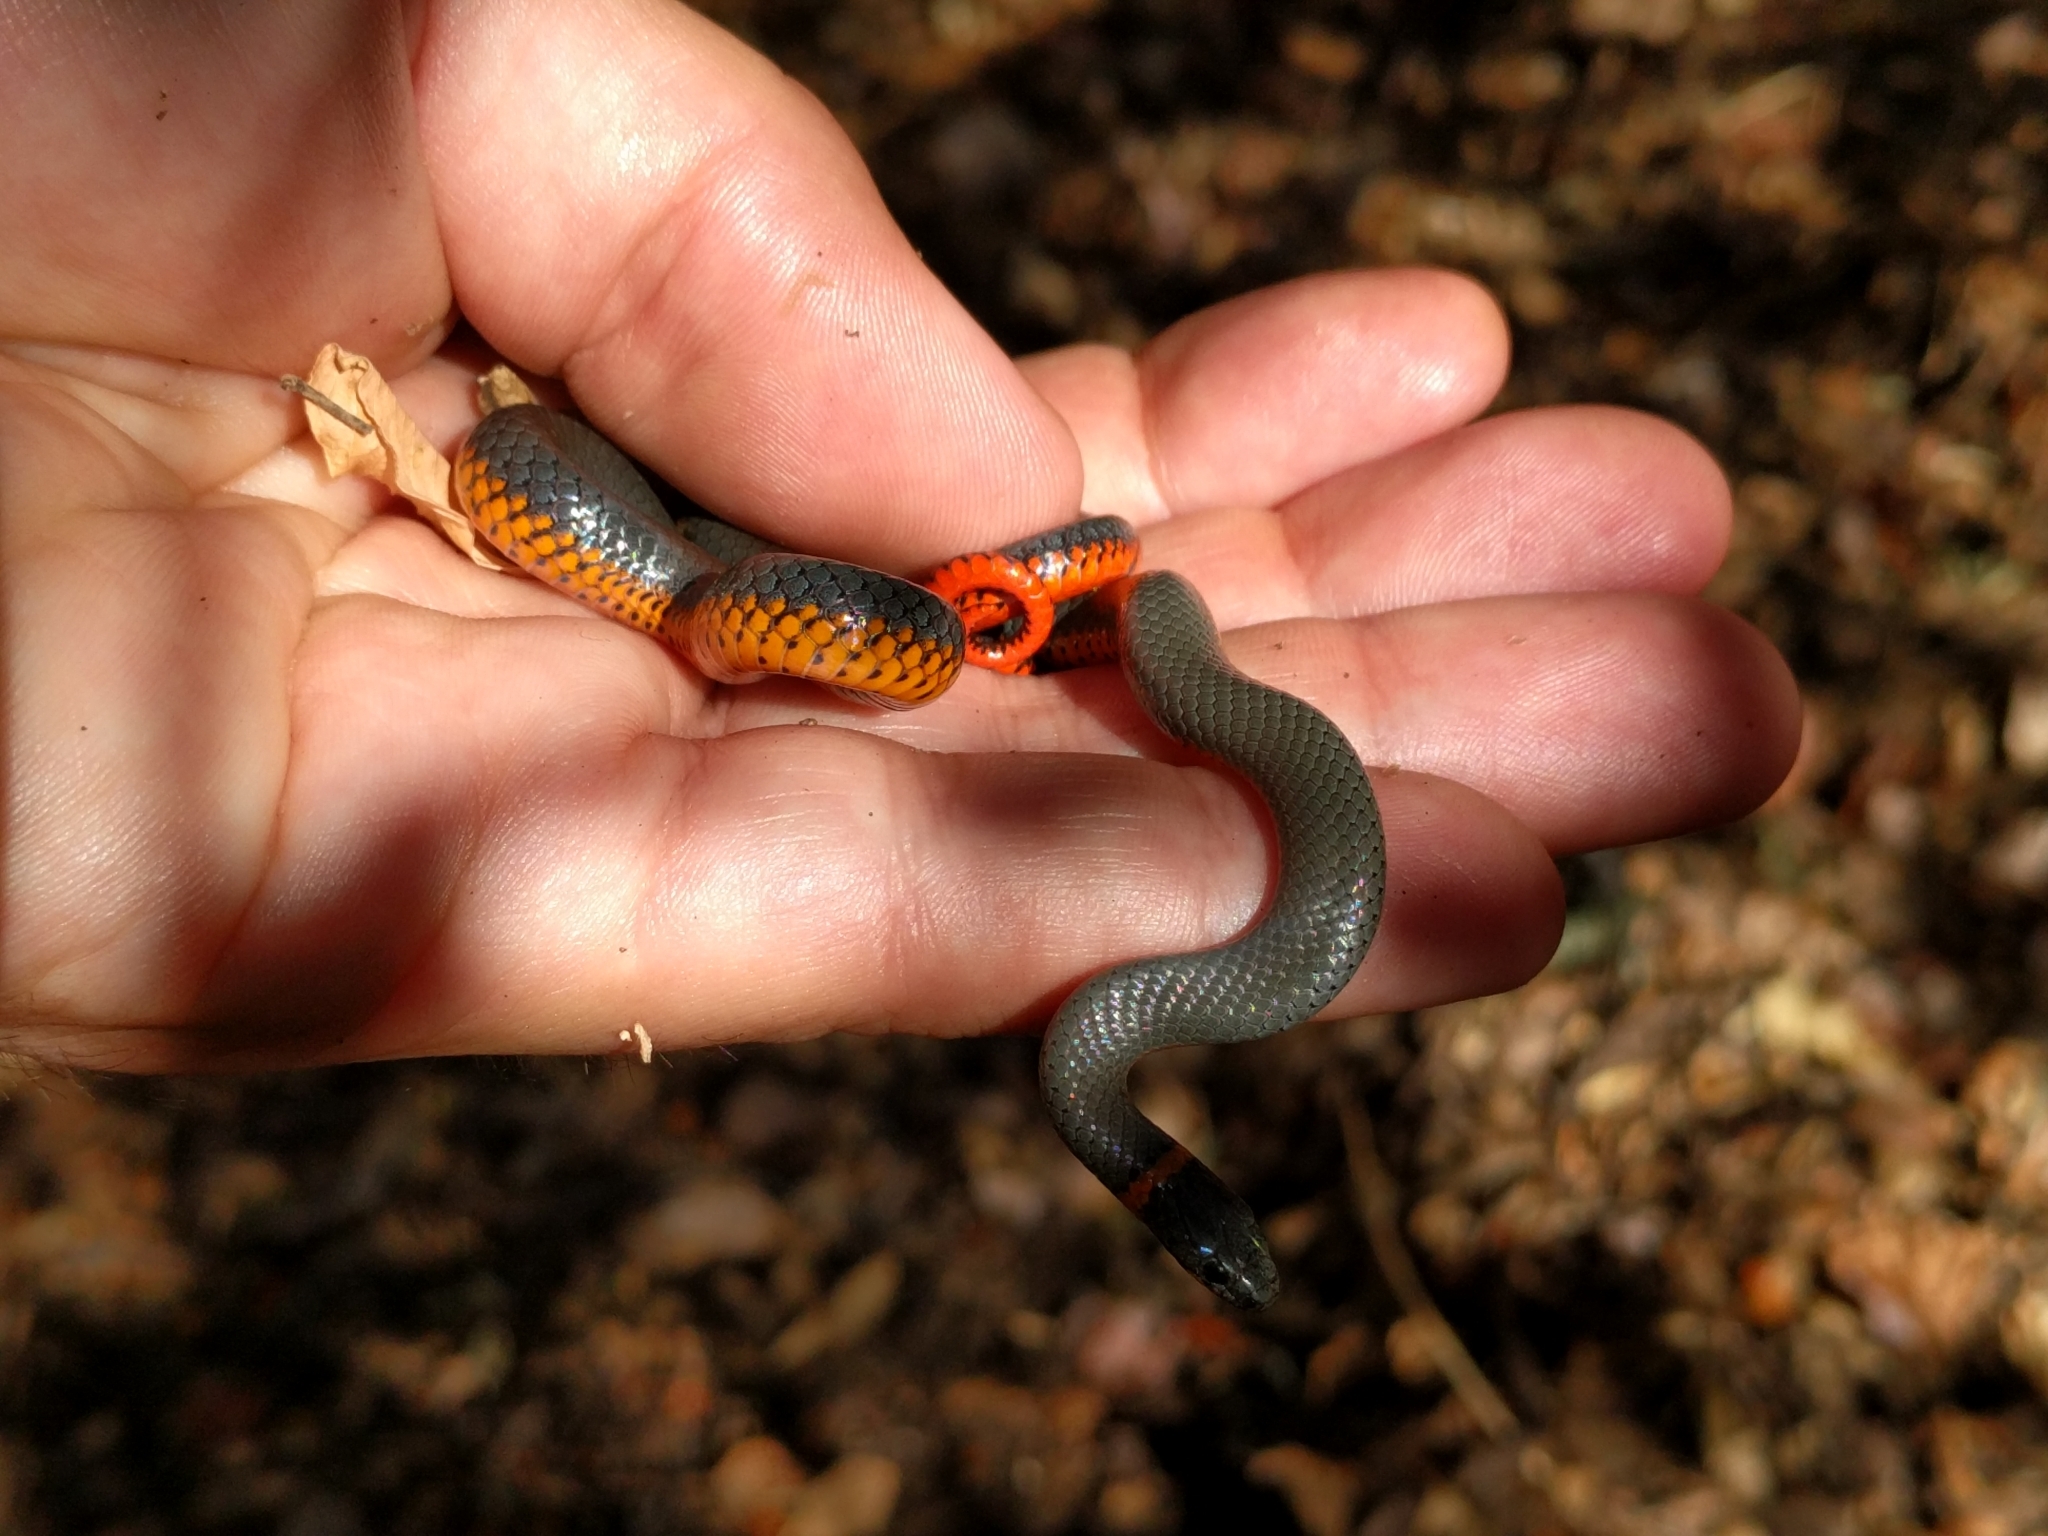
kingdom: Animalia
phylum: Chordata
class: Squamata
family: Colubridae
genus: Diadophis
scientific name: Diadophis punctatus
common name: Ringneck snake
